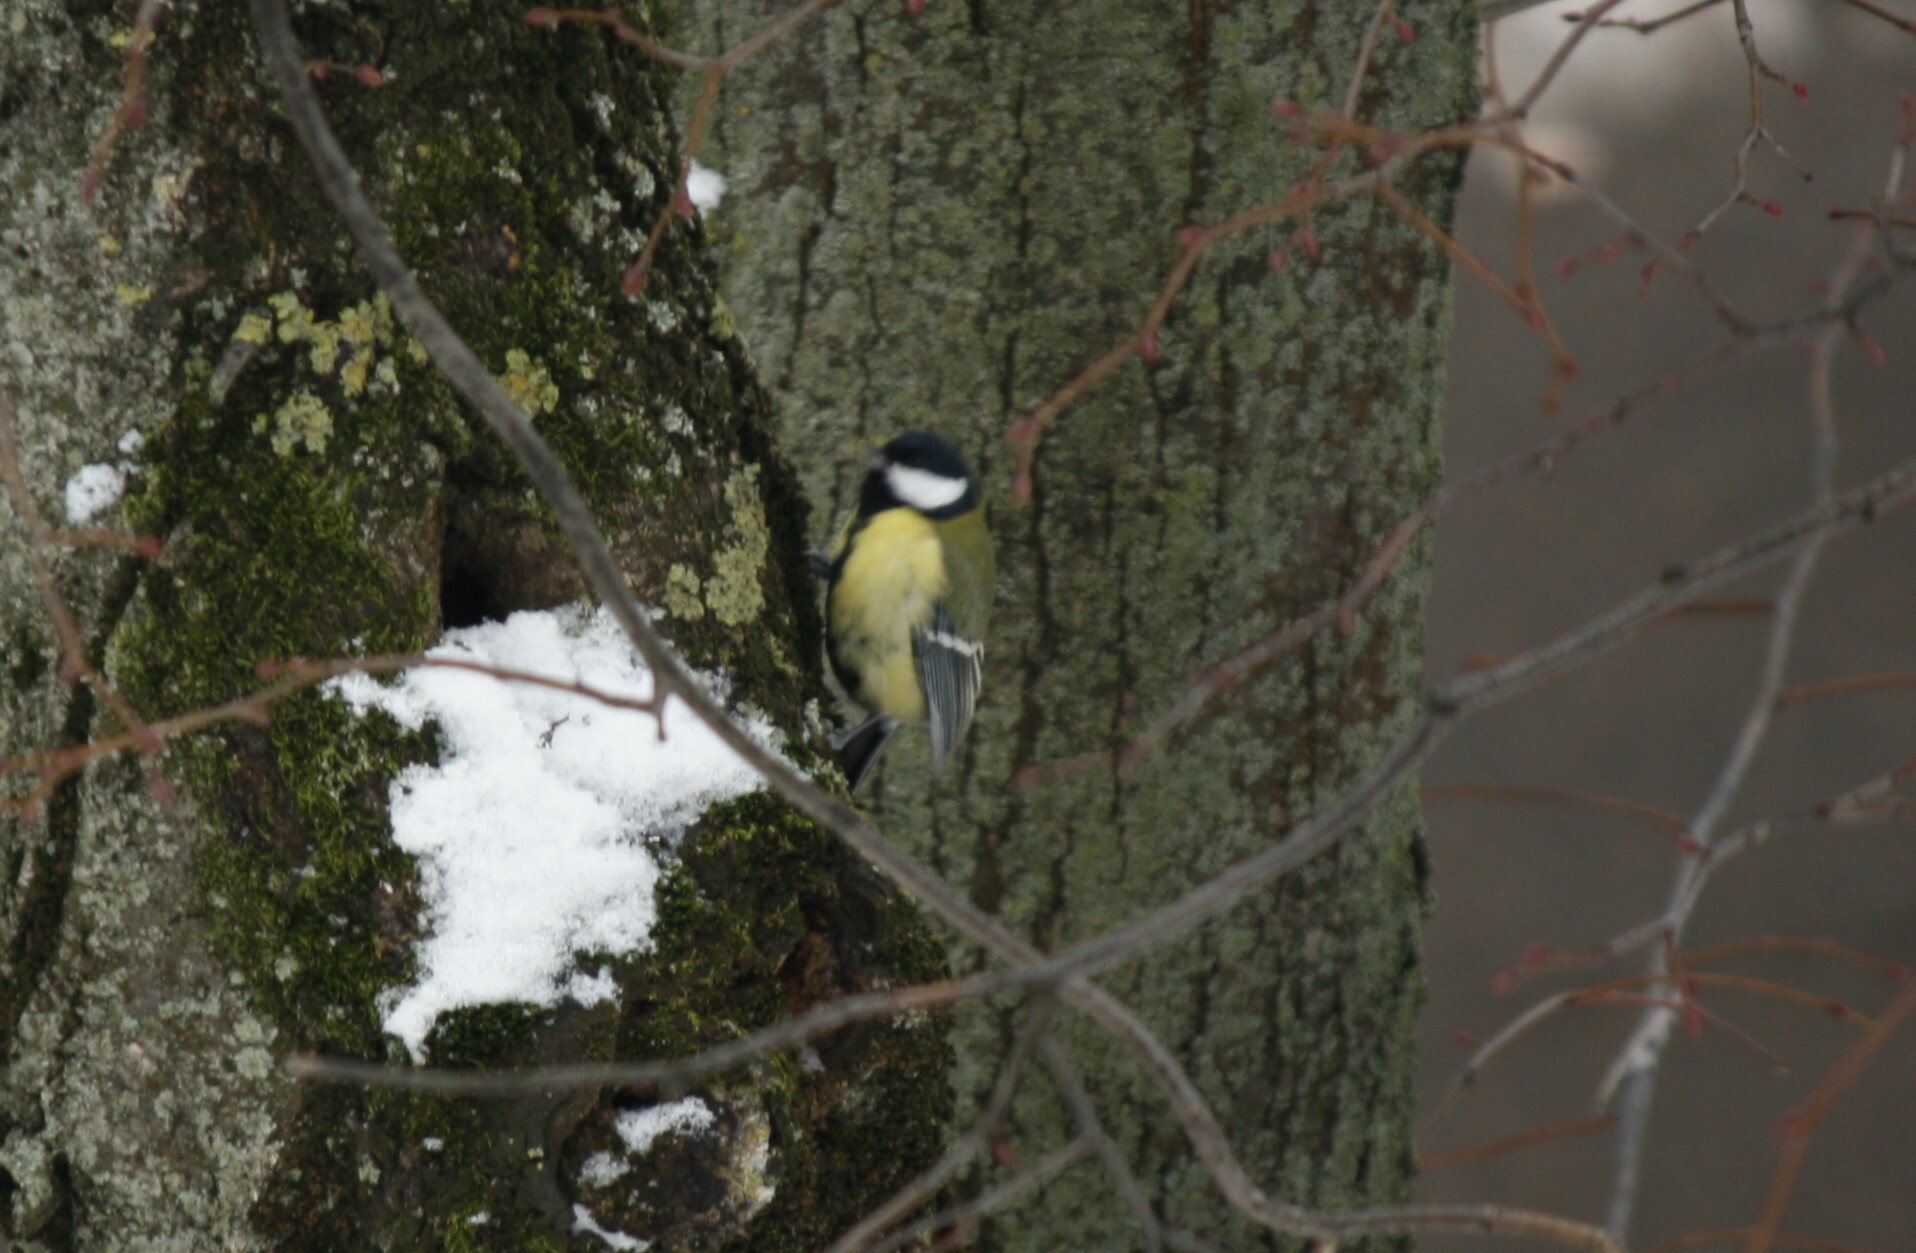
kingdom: Animalia
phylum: Chordata
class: Aves
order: Passeriformes
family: Paridae
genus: Parus
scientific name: Parus major
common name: Great tit
